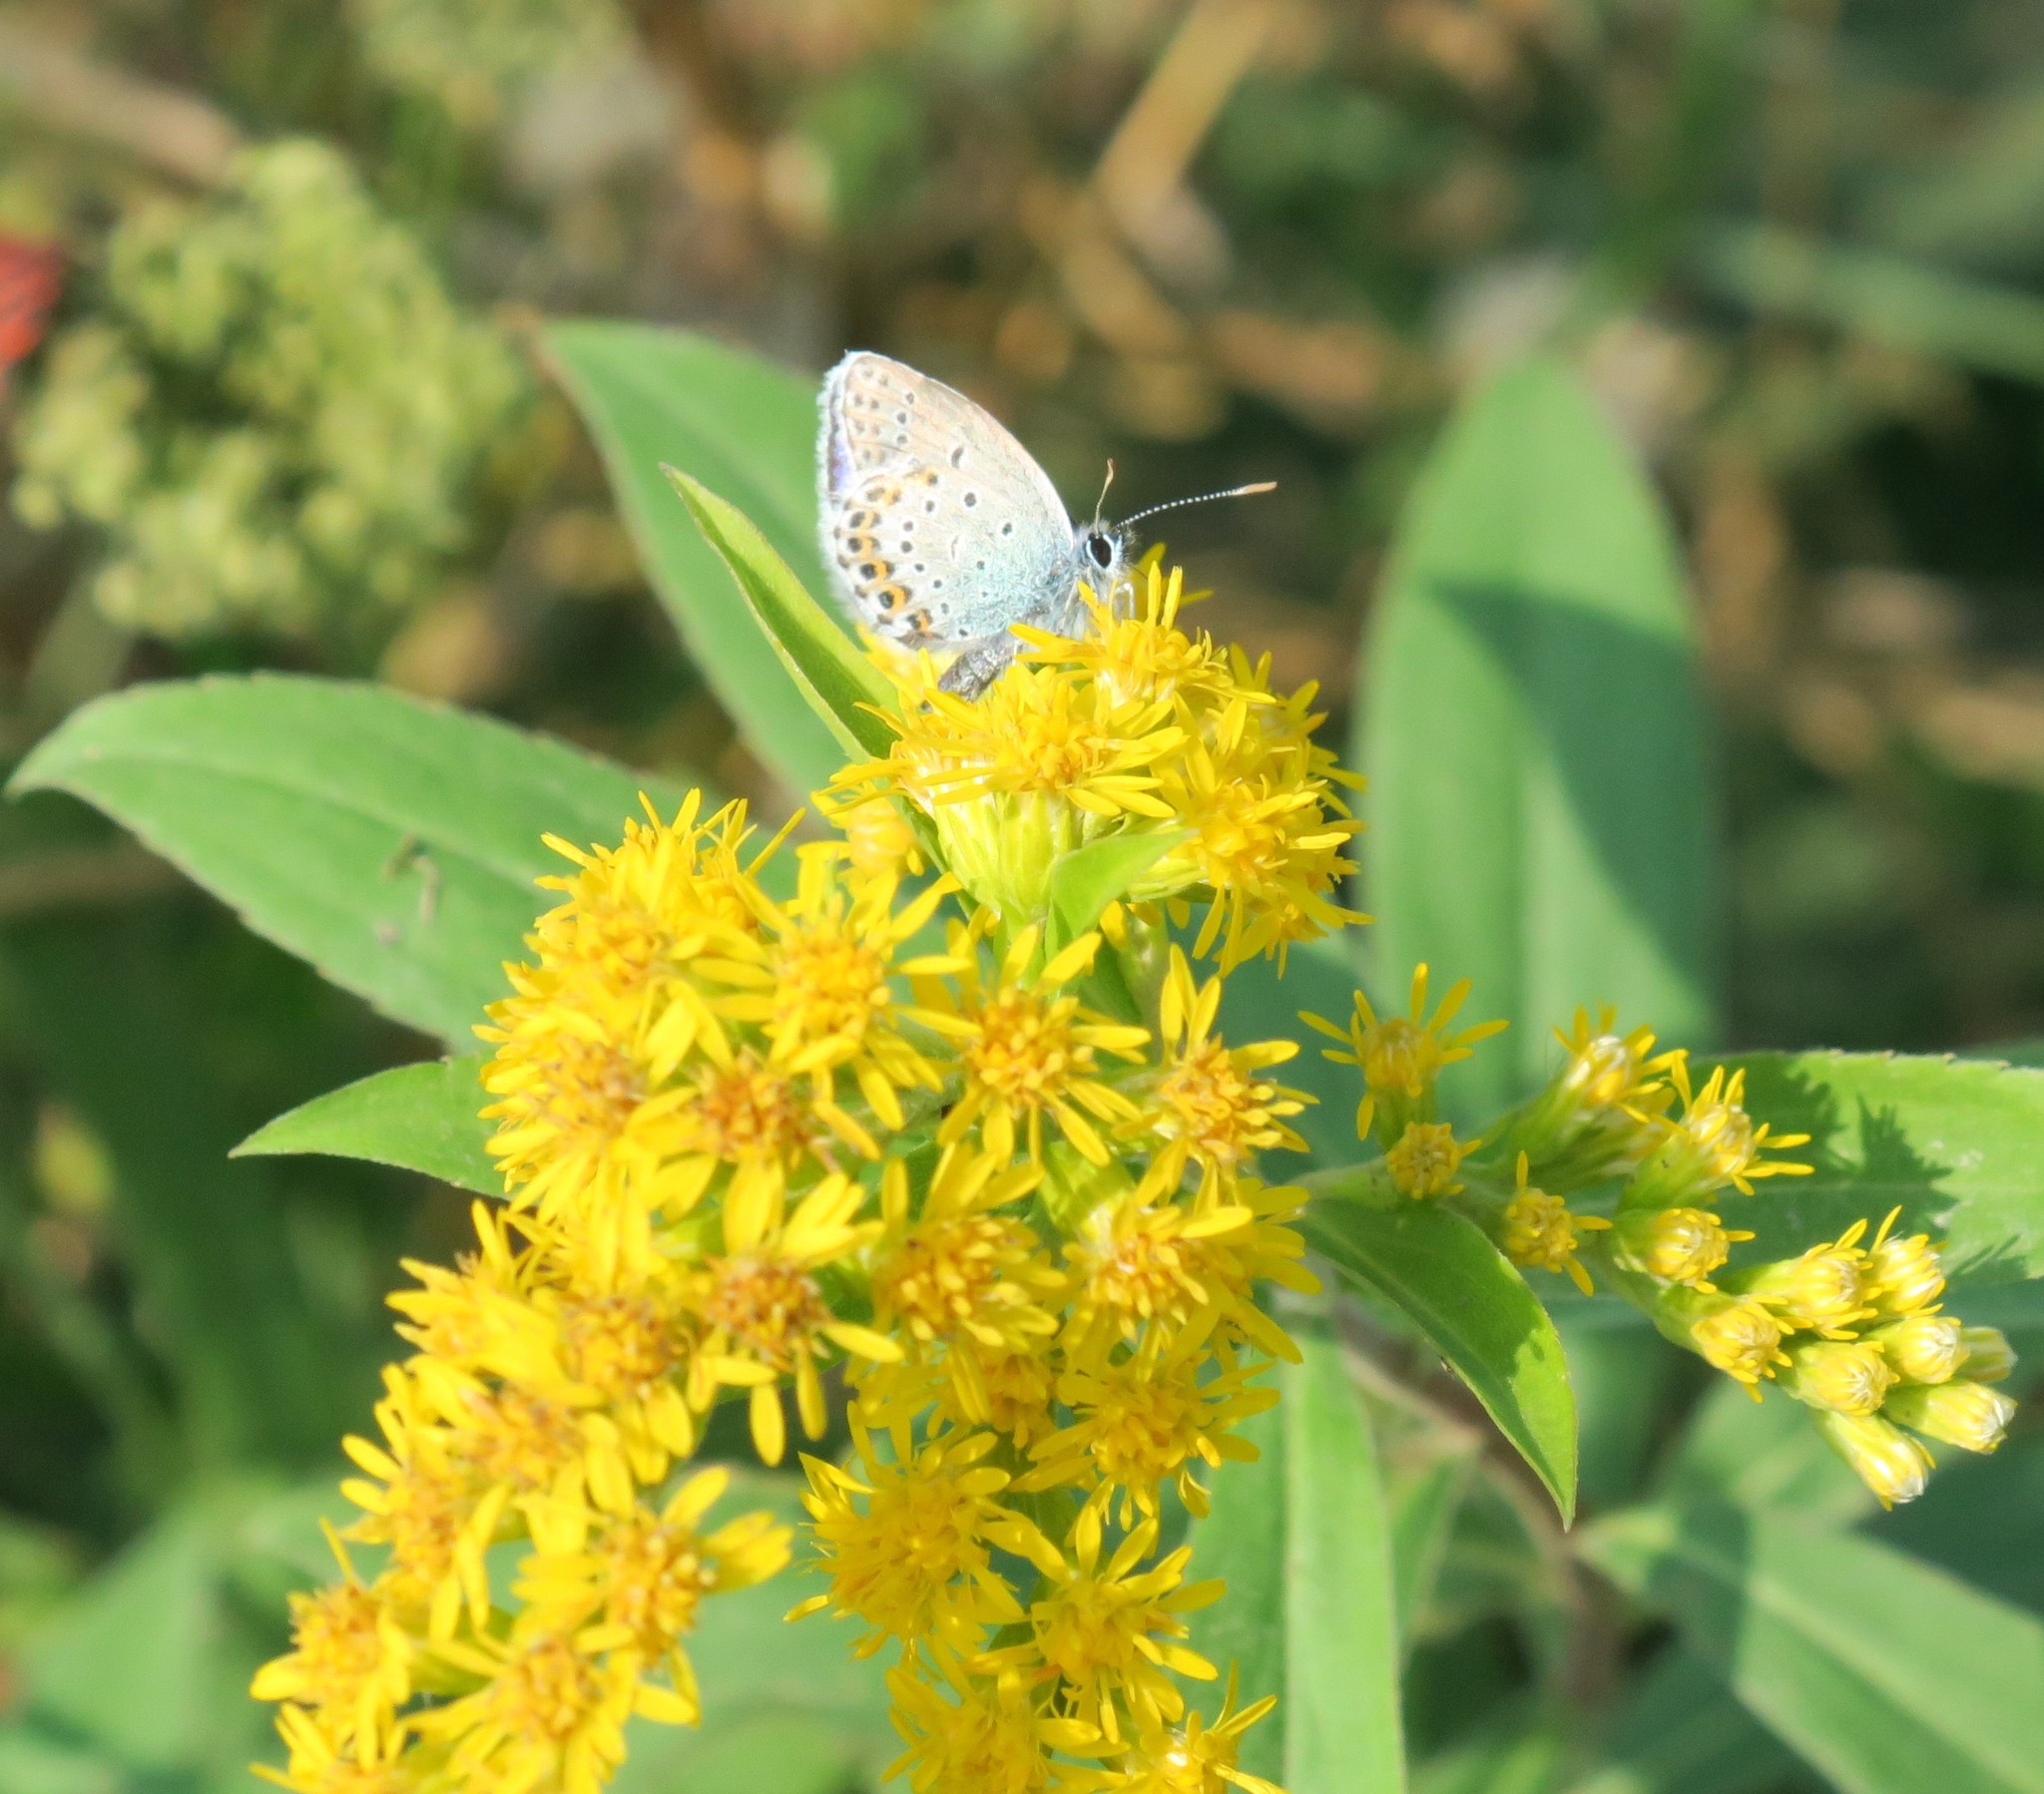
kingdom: Animalia
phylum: Arthropoda
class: Insecta
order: Lepidoptera
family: Lycaenidae
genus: Lycaeides
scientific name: Lycaeides idas
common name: Northern blue
